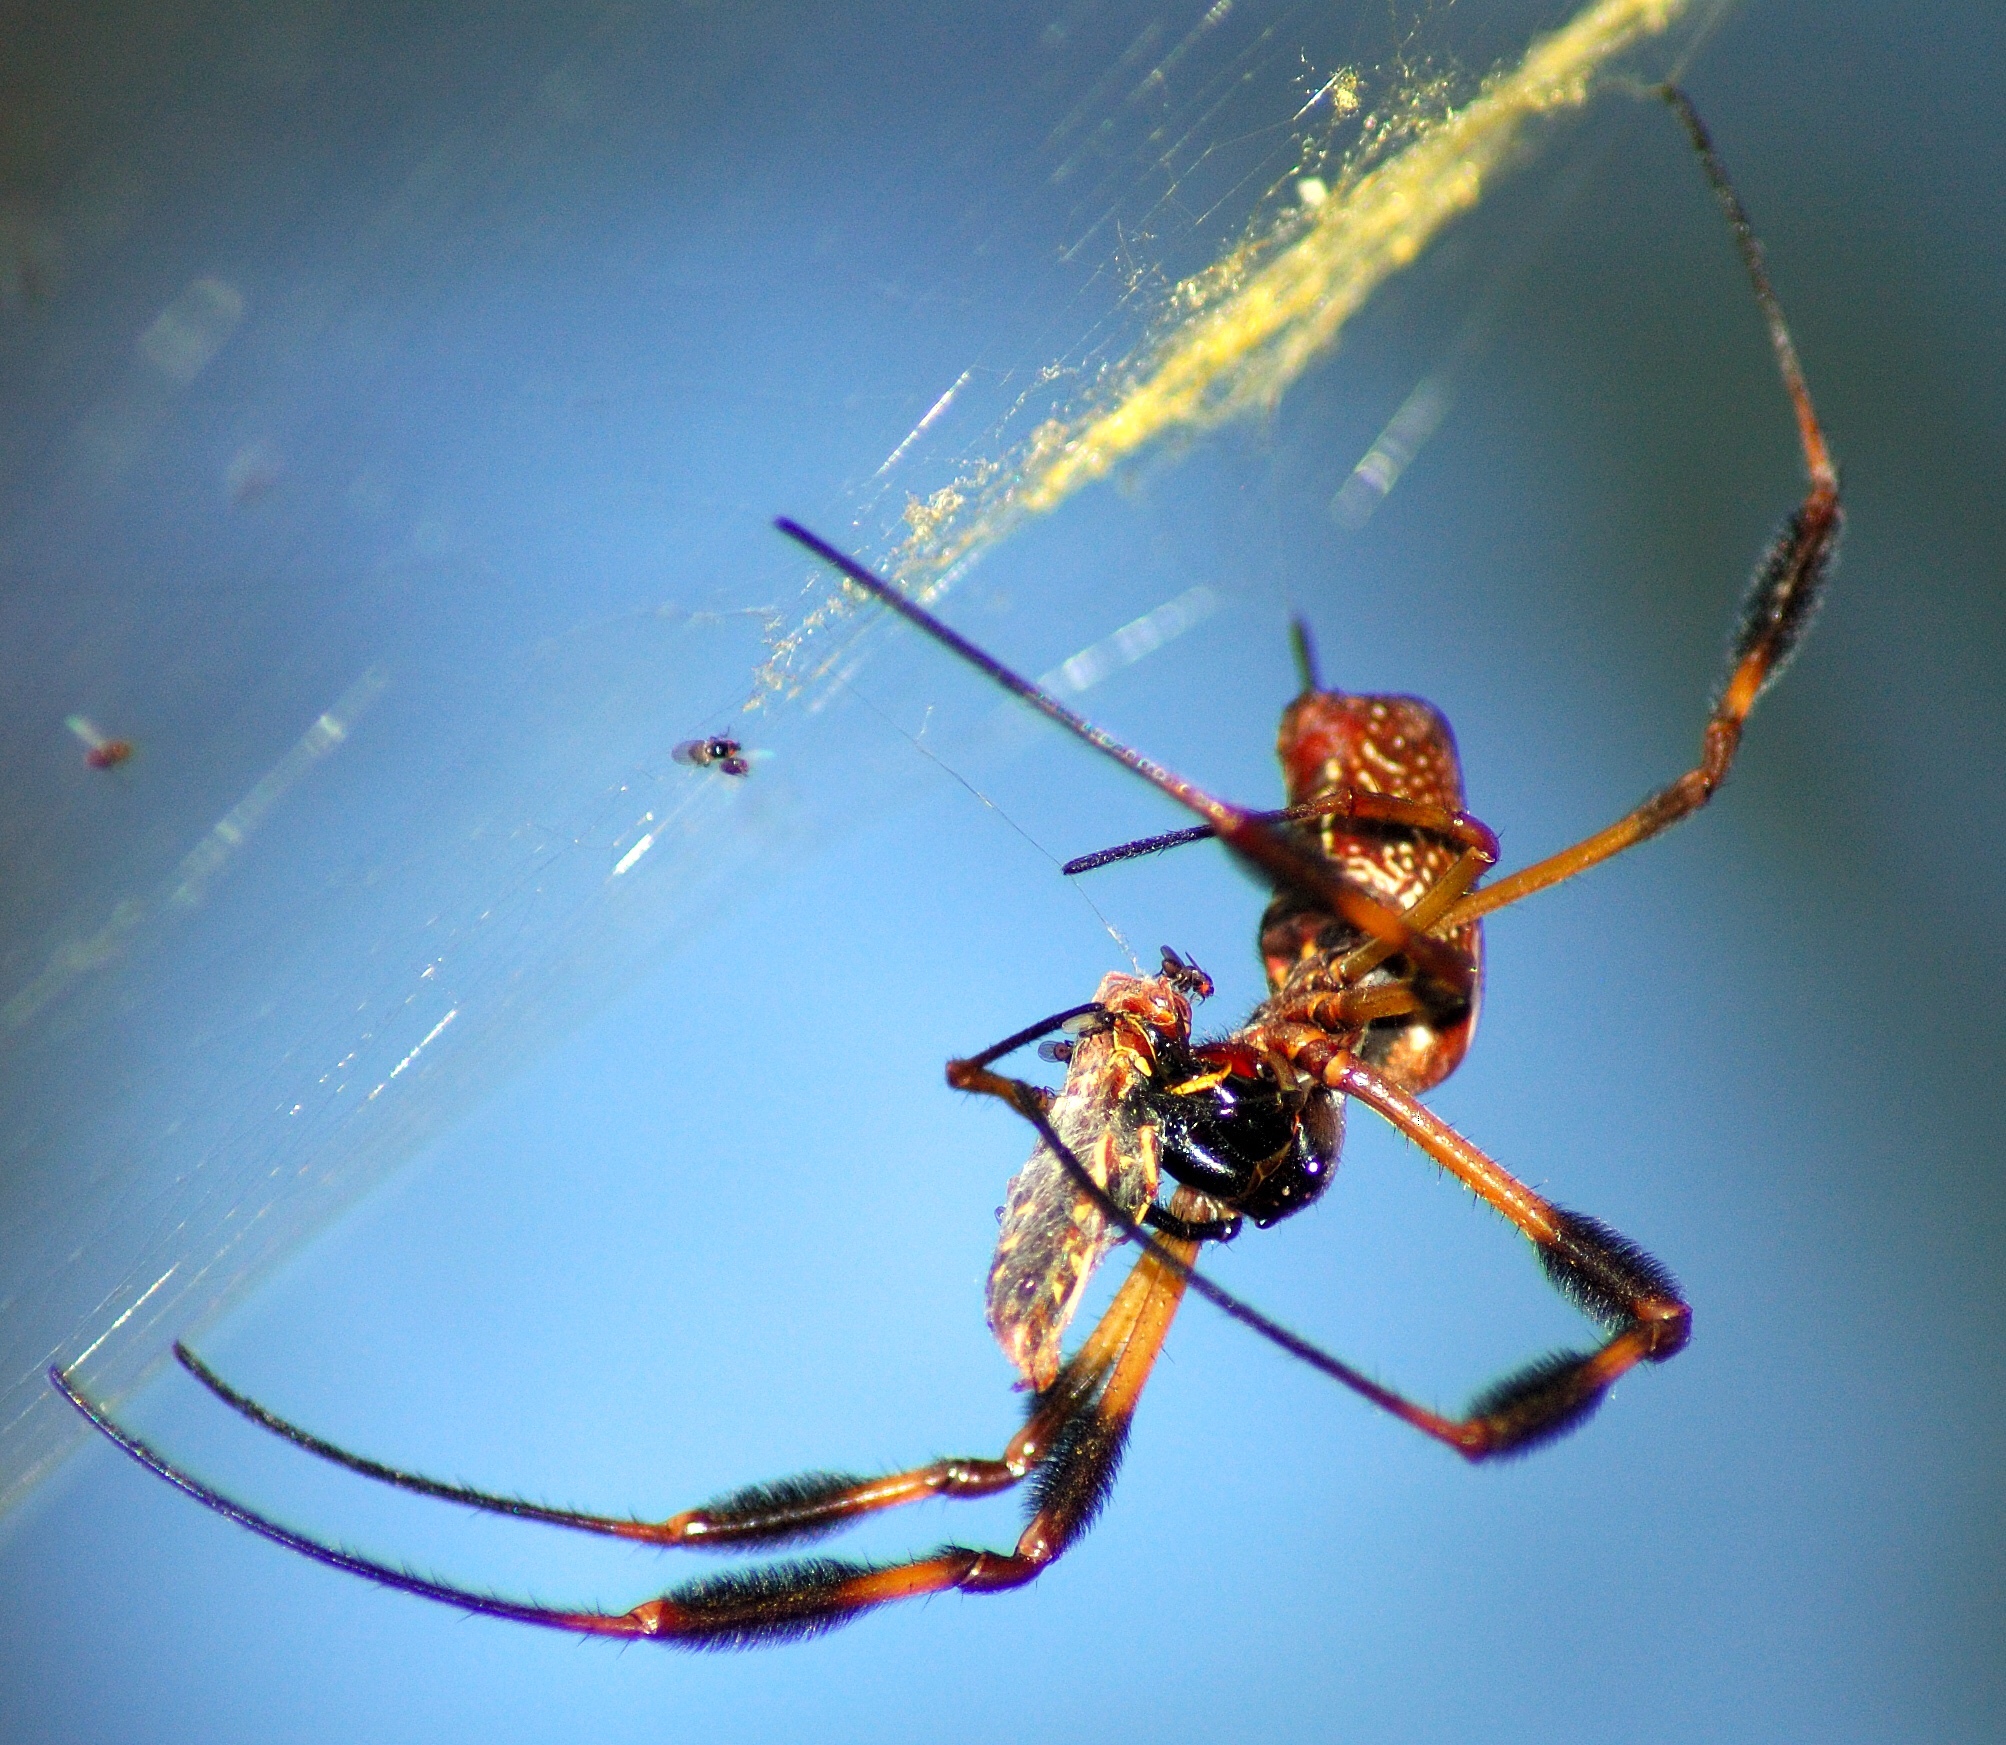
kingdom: Animalia
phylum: Arthropoda
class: Arachnida
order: Araneae
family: Araneidae
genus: Trichonephila
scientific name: Trichonephila clavipes
